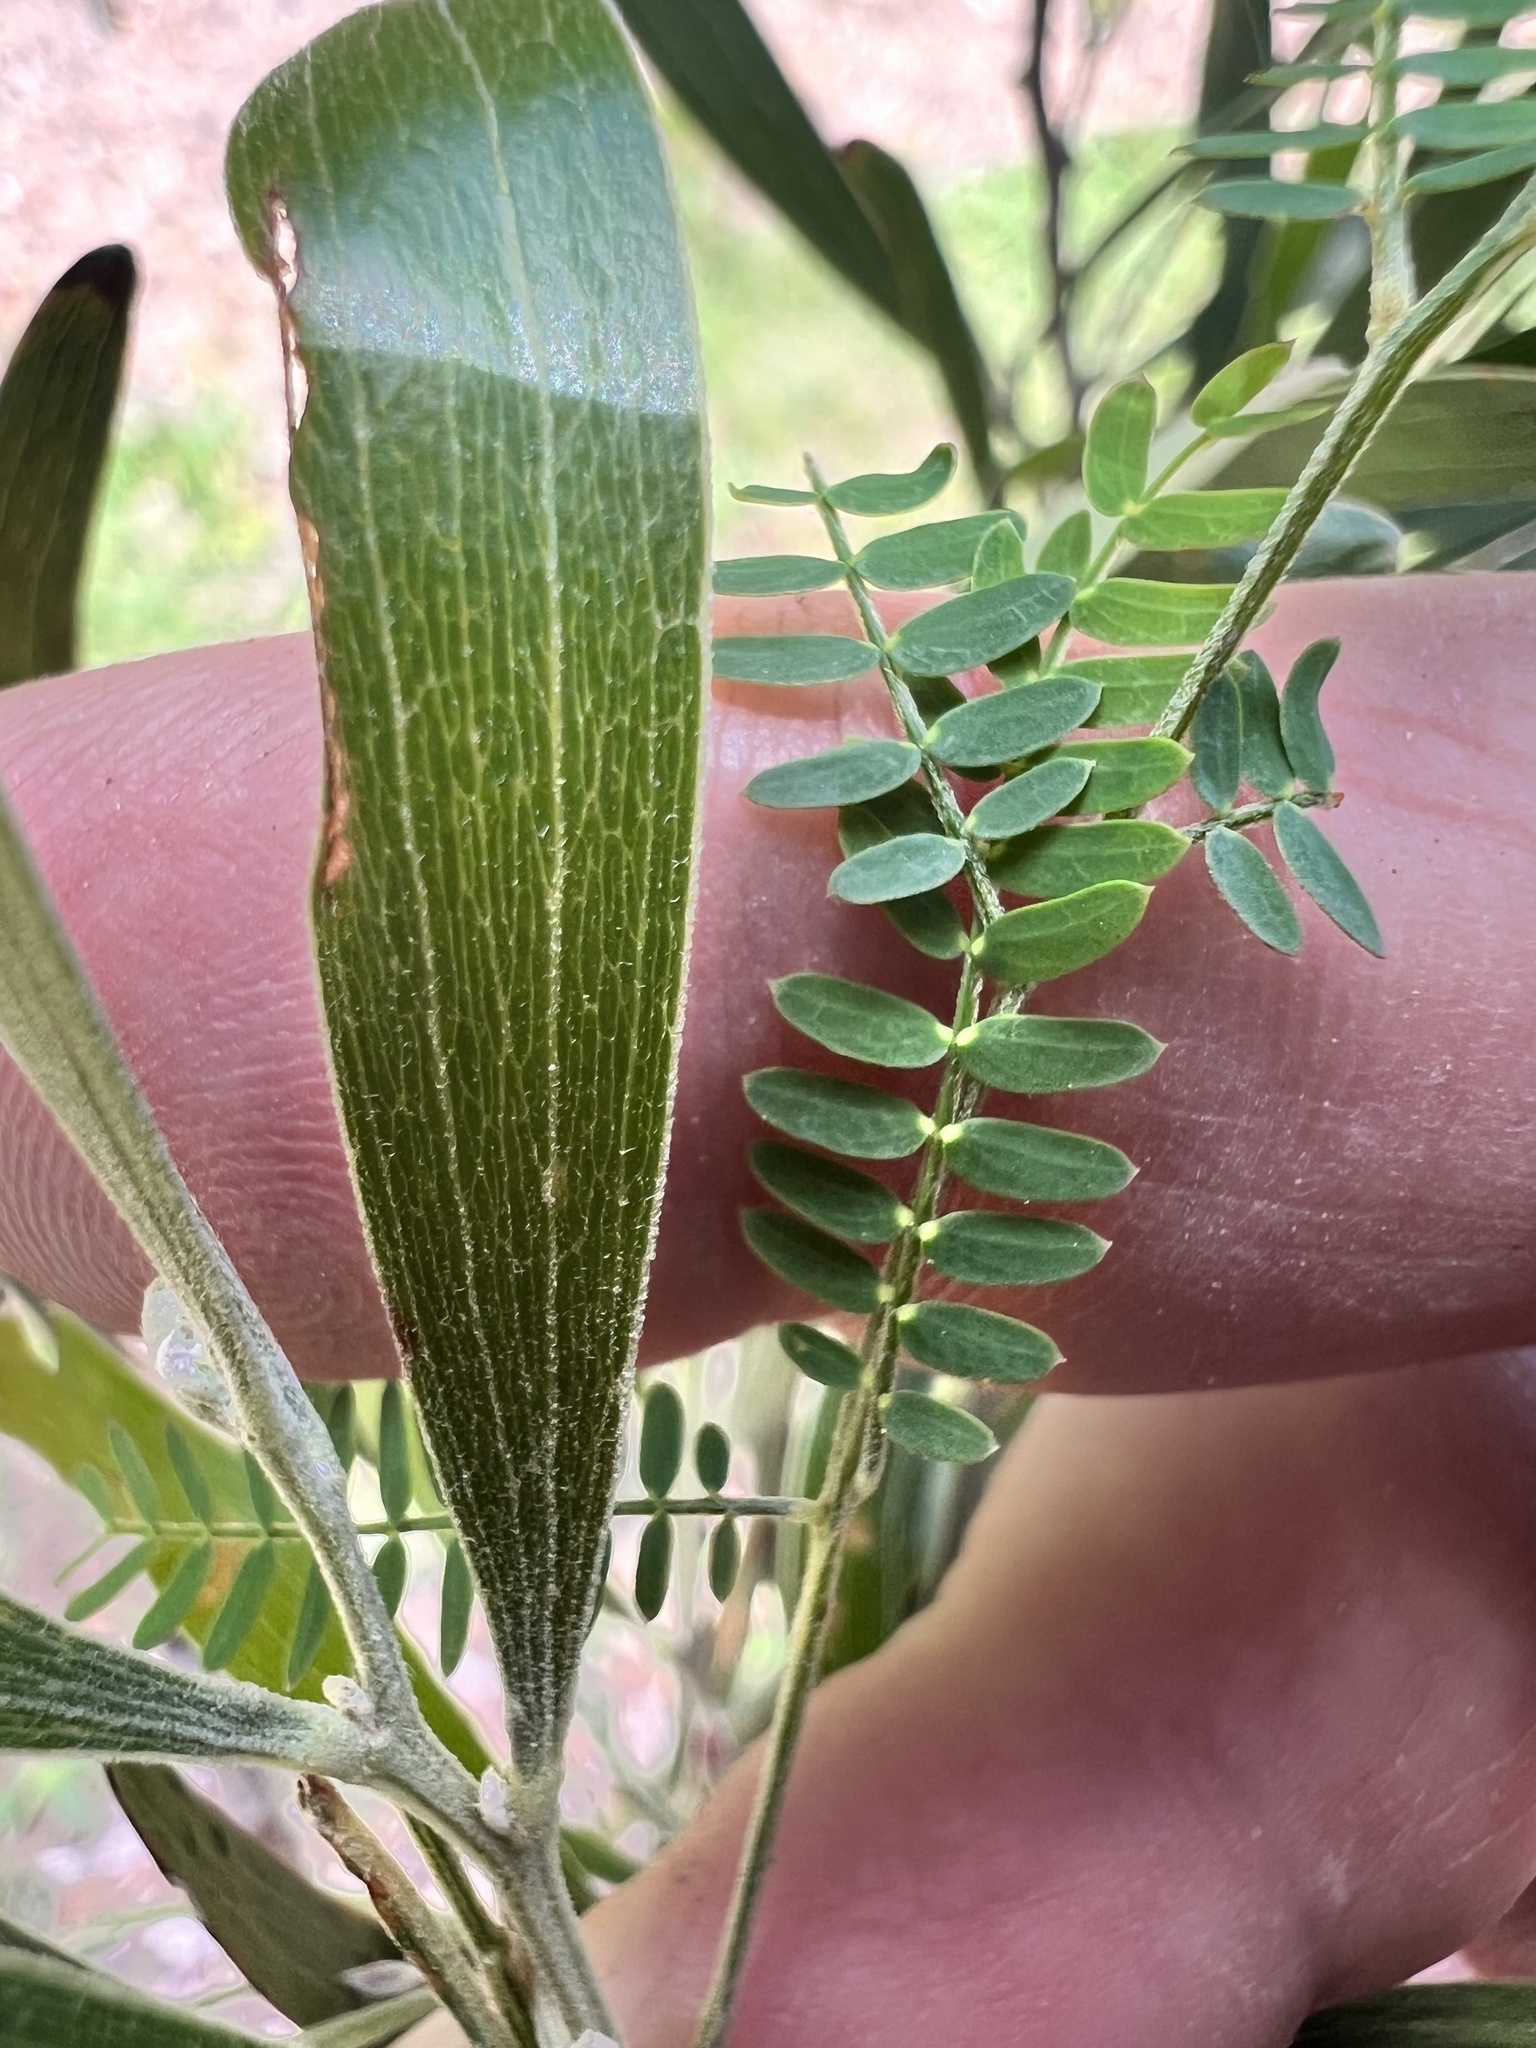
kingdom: Plantae
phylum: Tracheophyta
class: Magnoliopsida
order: Fabales
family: Fabaceae
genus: Acacia
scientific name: Acacia melanoxylon
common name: Blackwood
